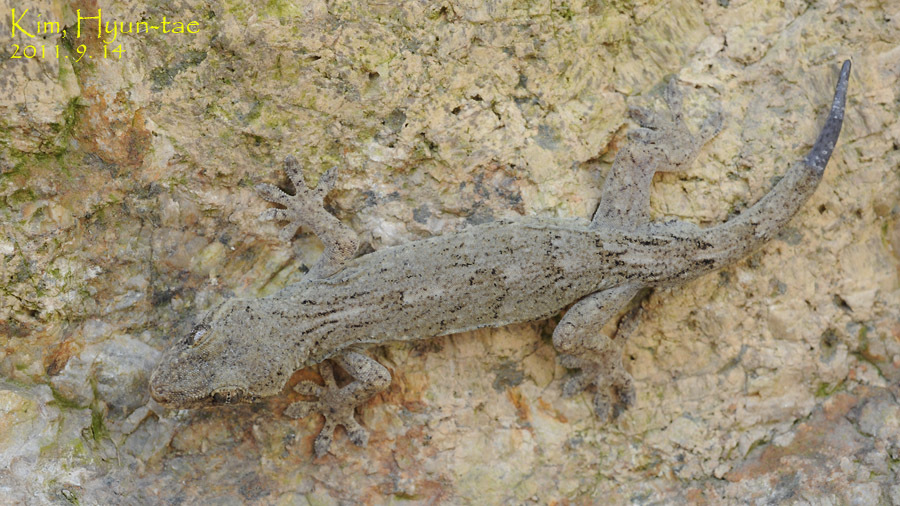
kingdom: Animalia
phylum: Chordata
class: Squamata
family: Gekkonidae
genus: Gekko
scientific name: Gekko japonicus
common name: Schlegel's japanese gecko
